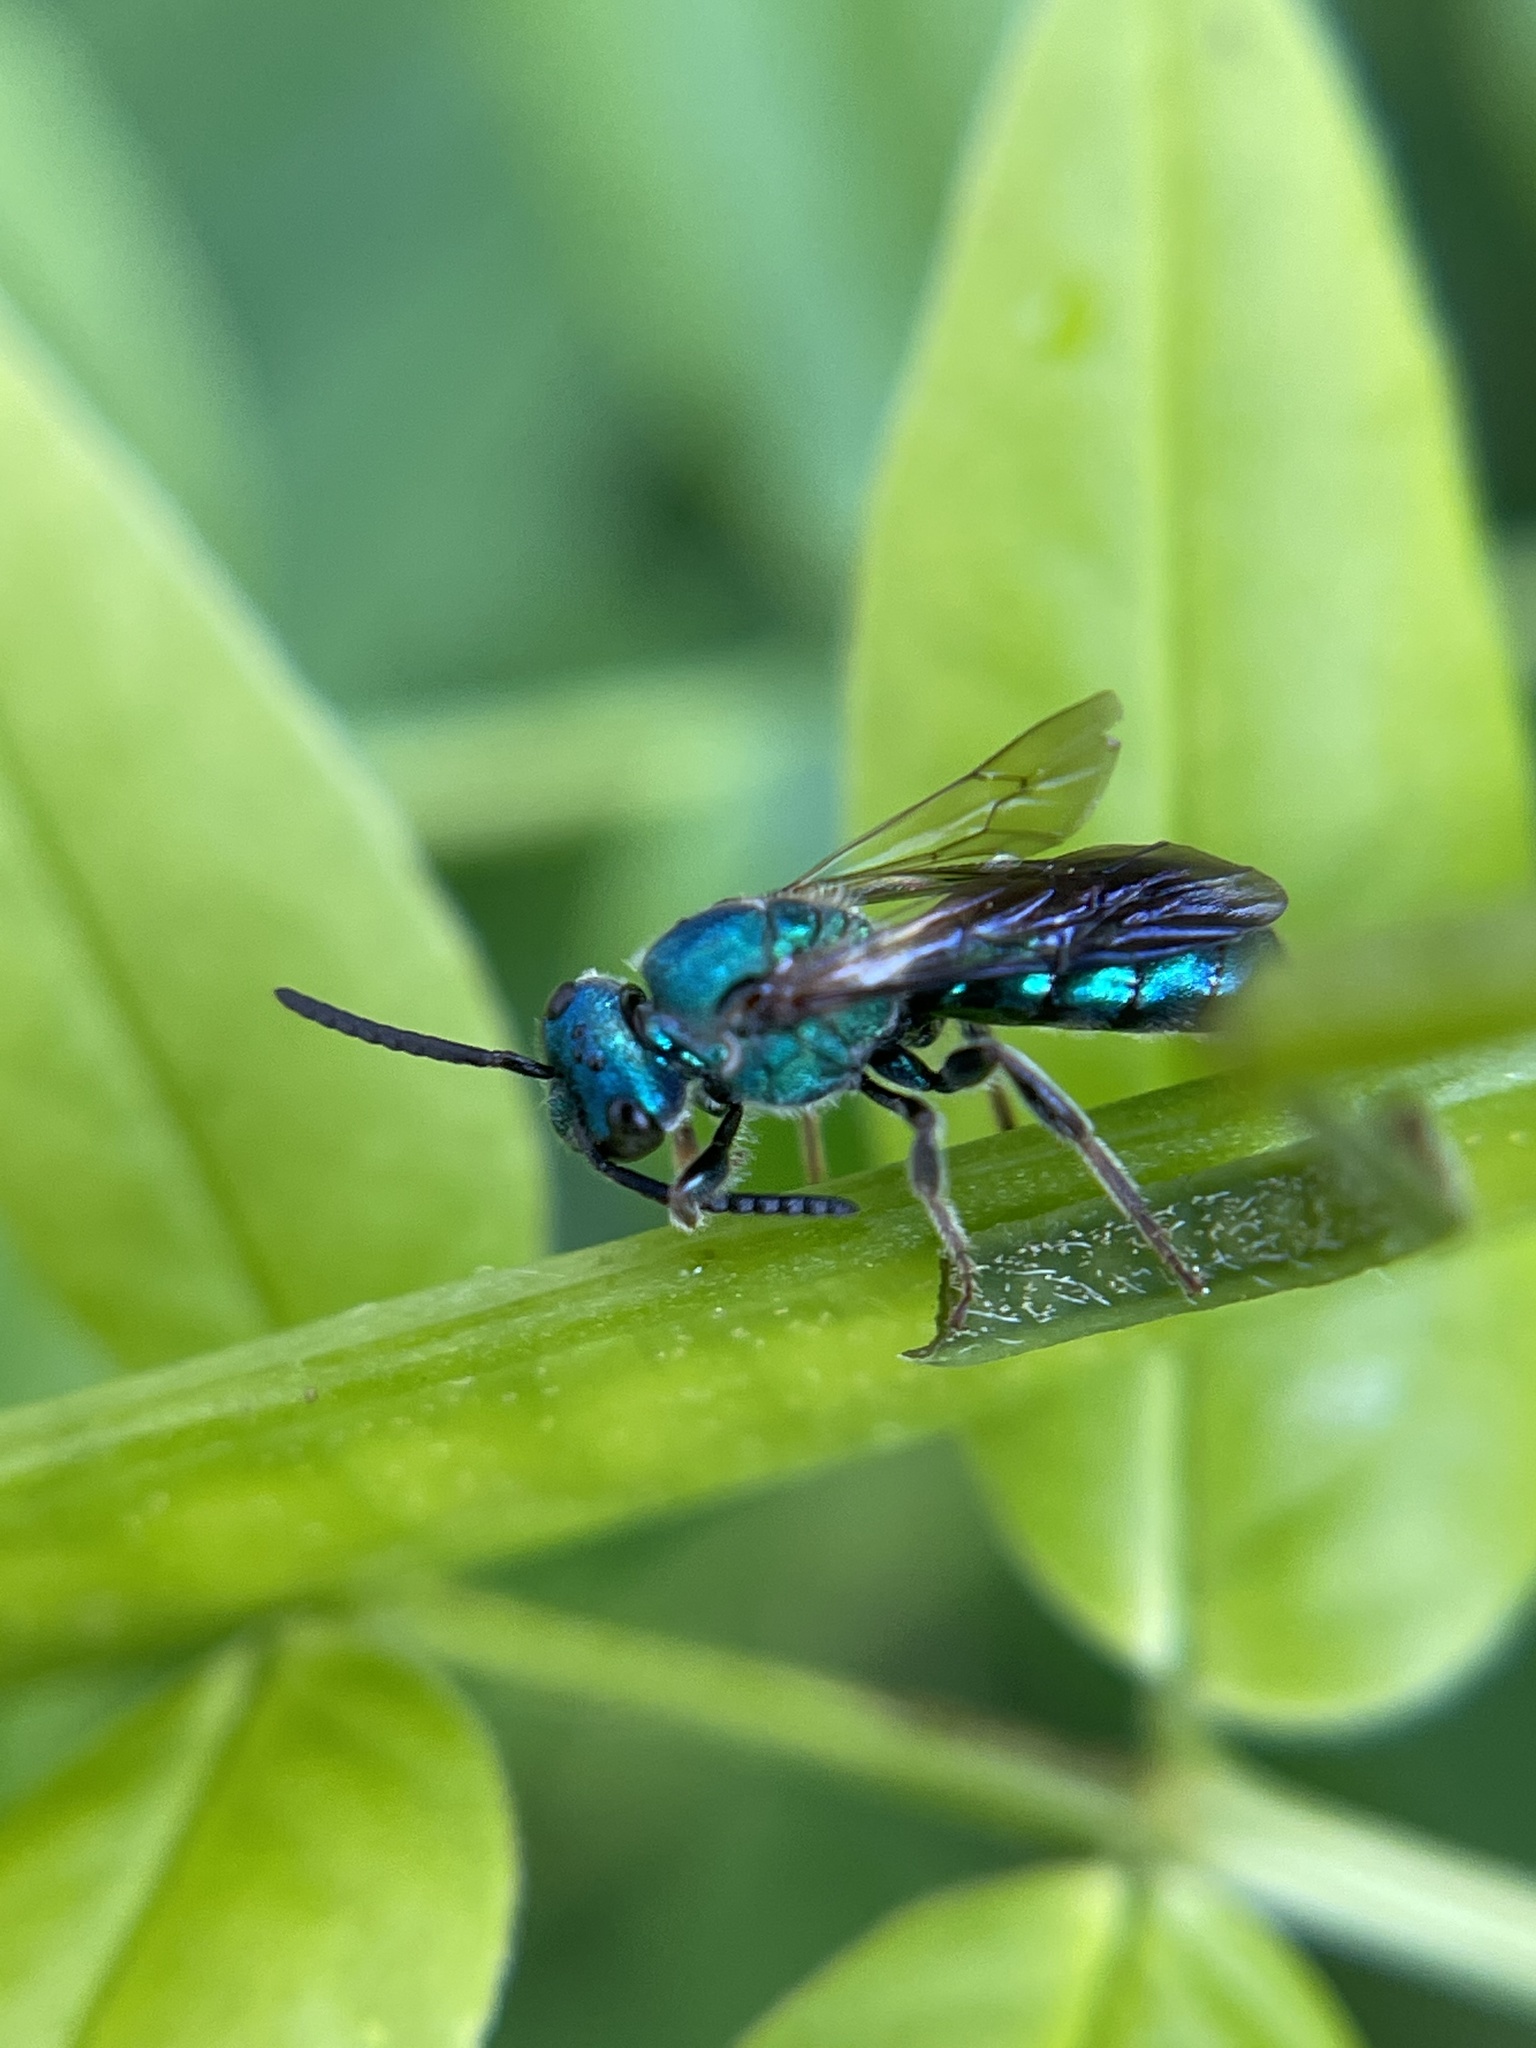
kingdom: Animalia
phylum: Arthropoda
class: Insecta
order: Hymenoptera
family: Halictidae
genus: Augochlora
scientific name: Augochlora pura
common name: Pure green sweat bee
